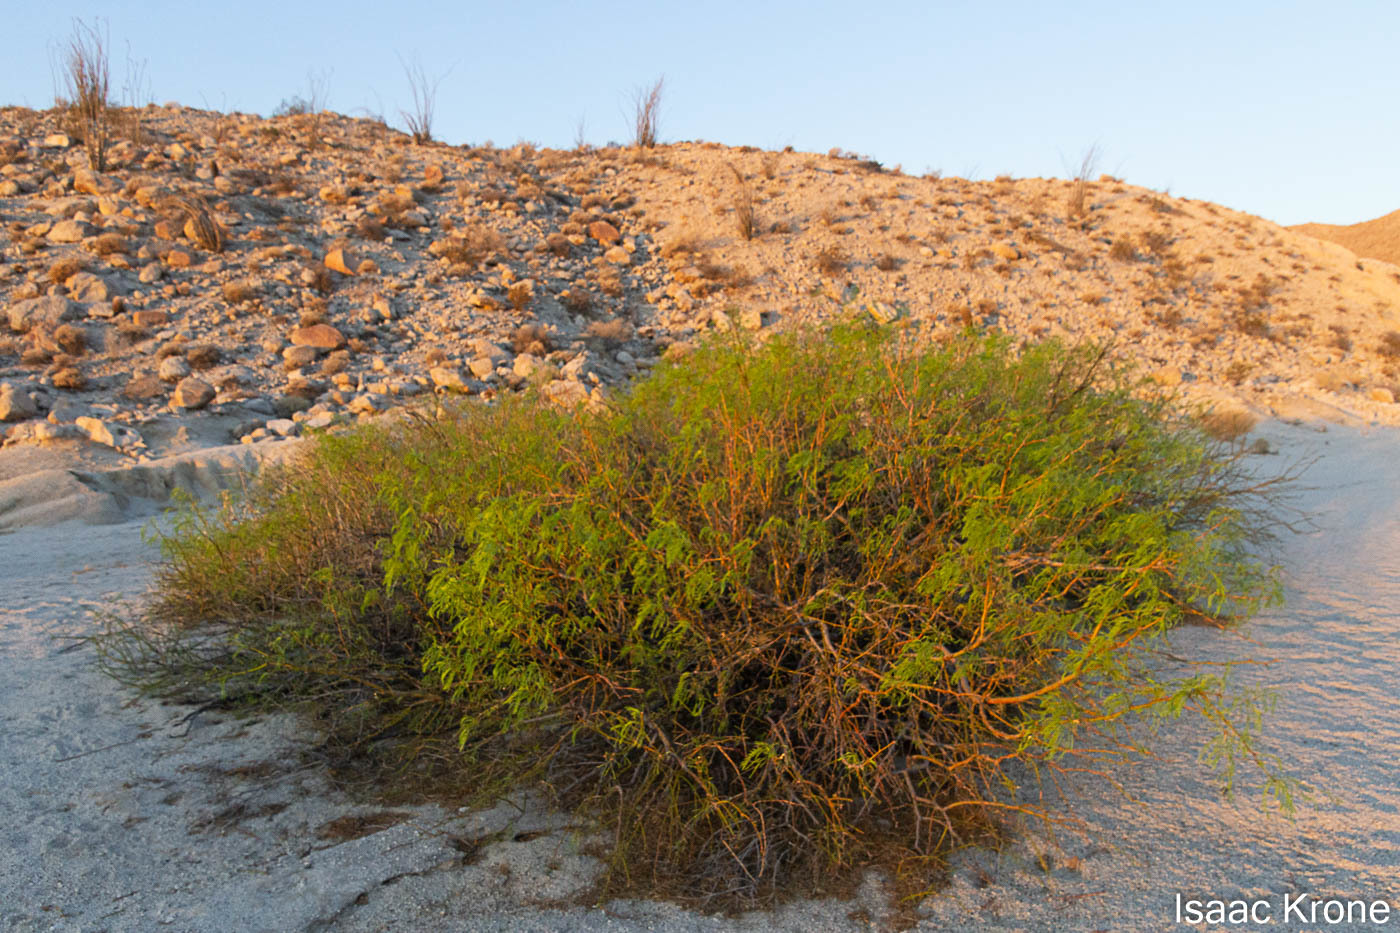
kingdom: Plantae
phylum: Tracheophyta
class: Magnoliopsida
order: Fabales
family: Fabaceae
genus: Prosopis
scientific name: Prosopis pubescens
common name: Screw-bean
